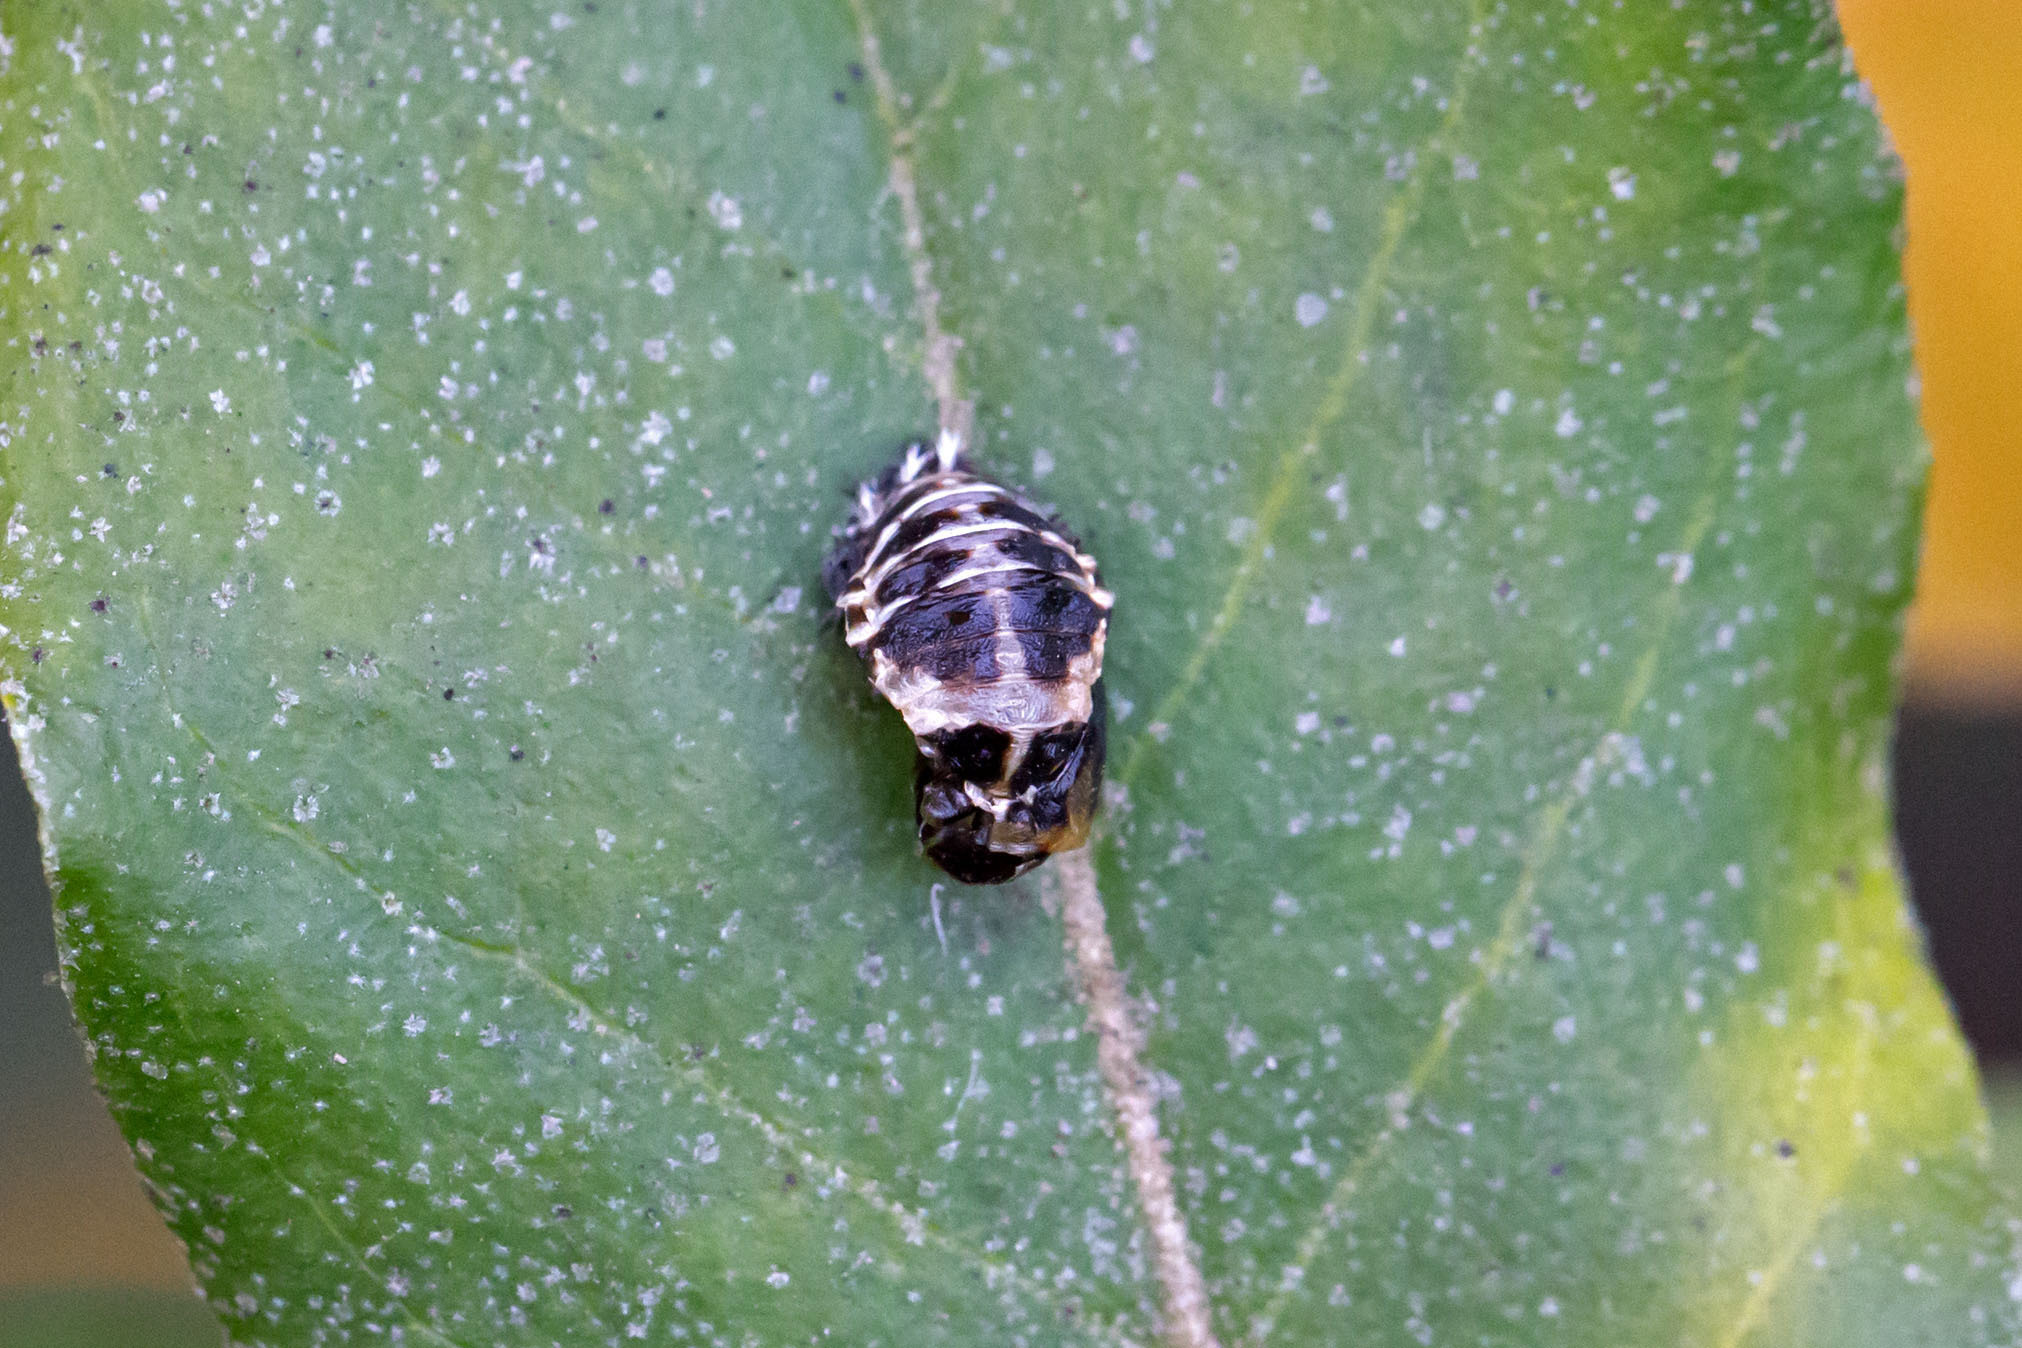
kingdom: Animalia
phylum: Arthropoda
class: Insecta
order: Coleoptera
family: Coccinellidae
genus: Harmonia
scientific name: Harmonia axyridis
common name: Harlequin ladybird
